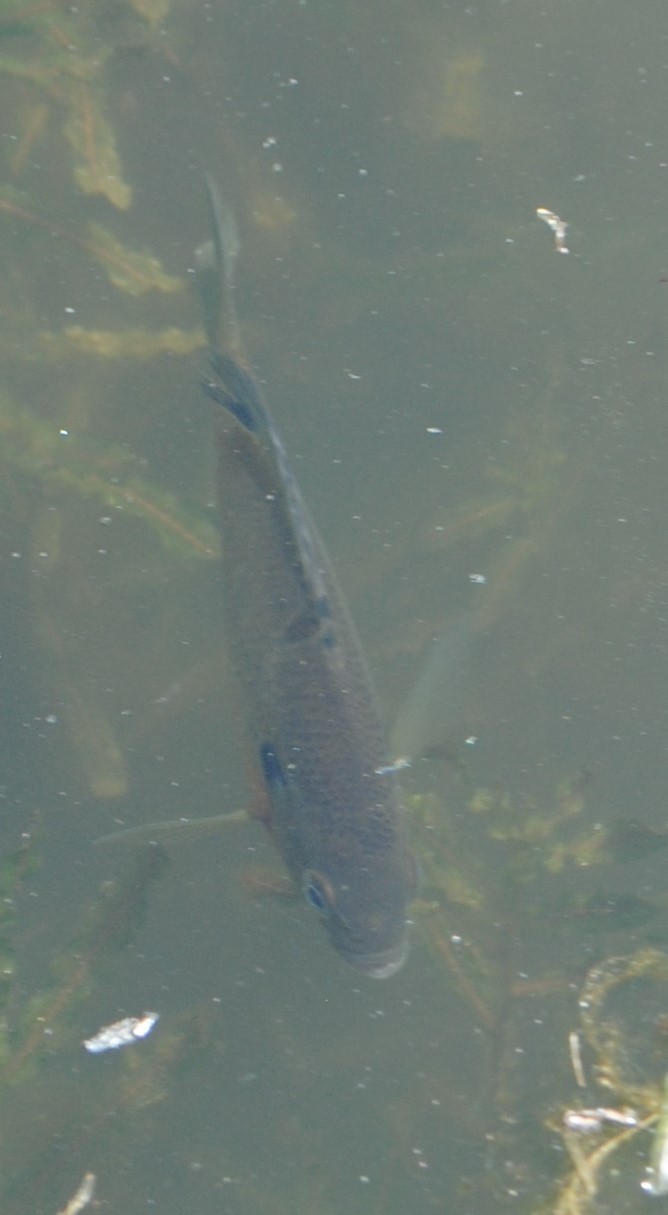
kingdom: Animalia
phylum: Chordata
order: Perciformes
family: Centrarchidae
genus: Lepomis
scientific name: Lepomis macrochirus
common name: Bluegill
